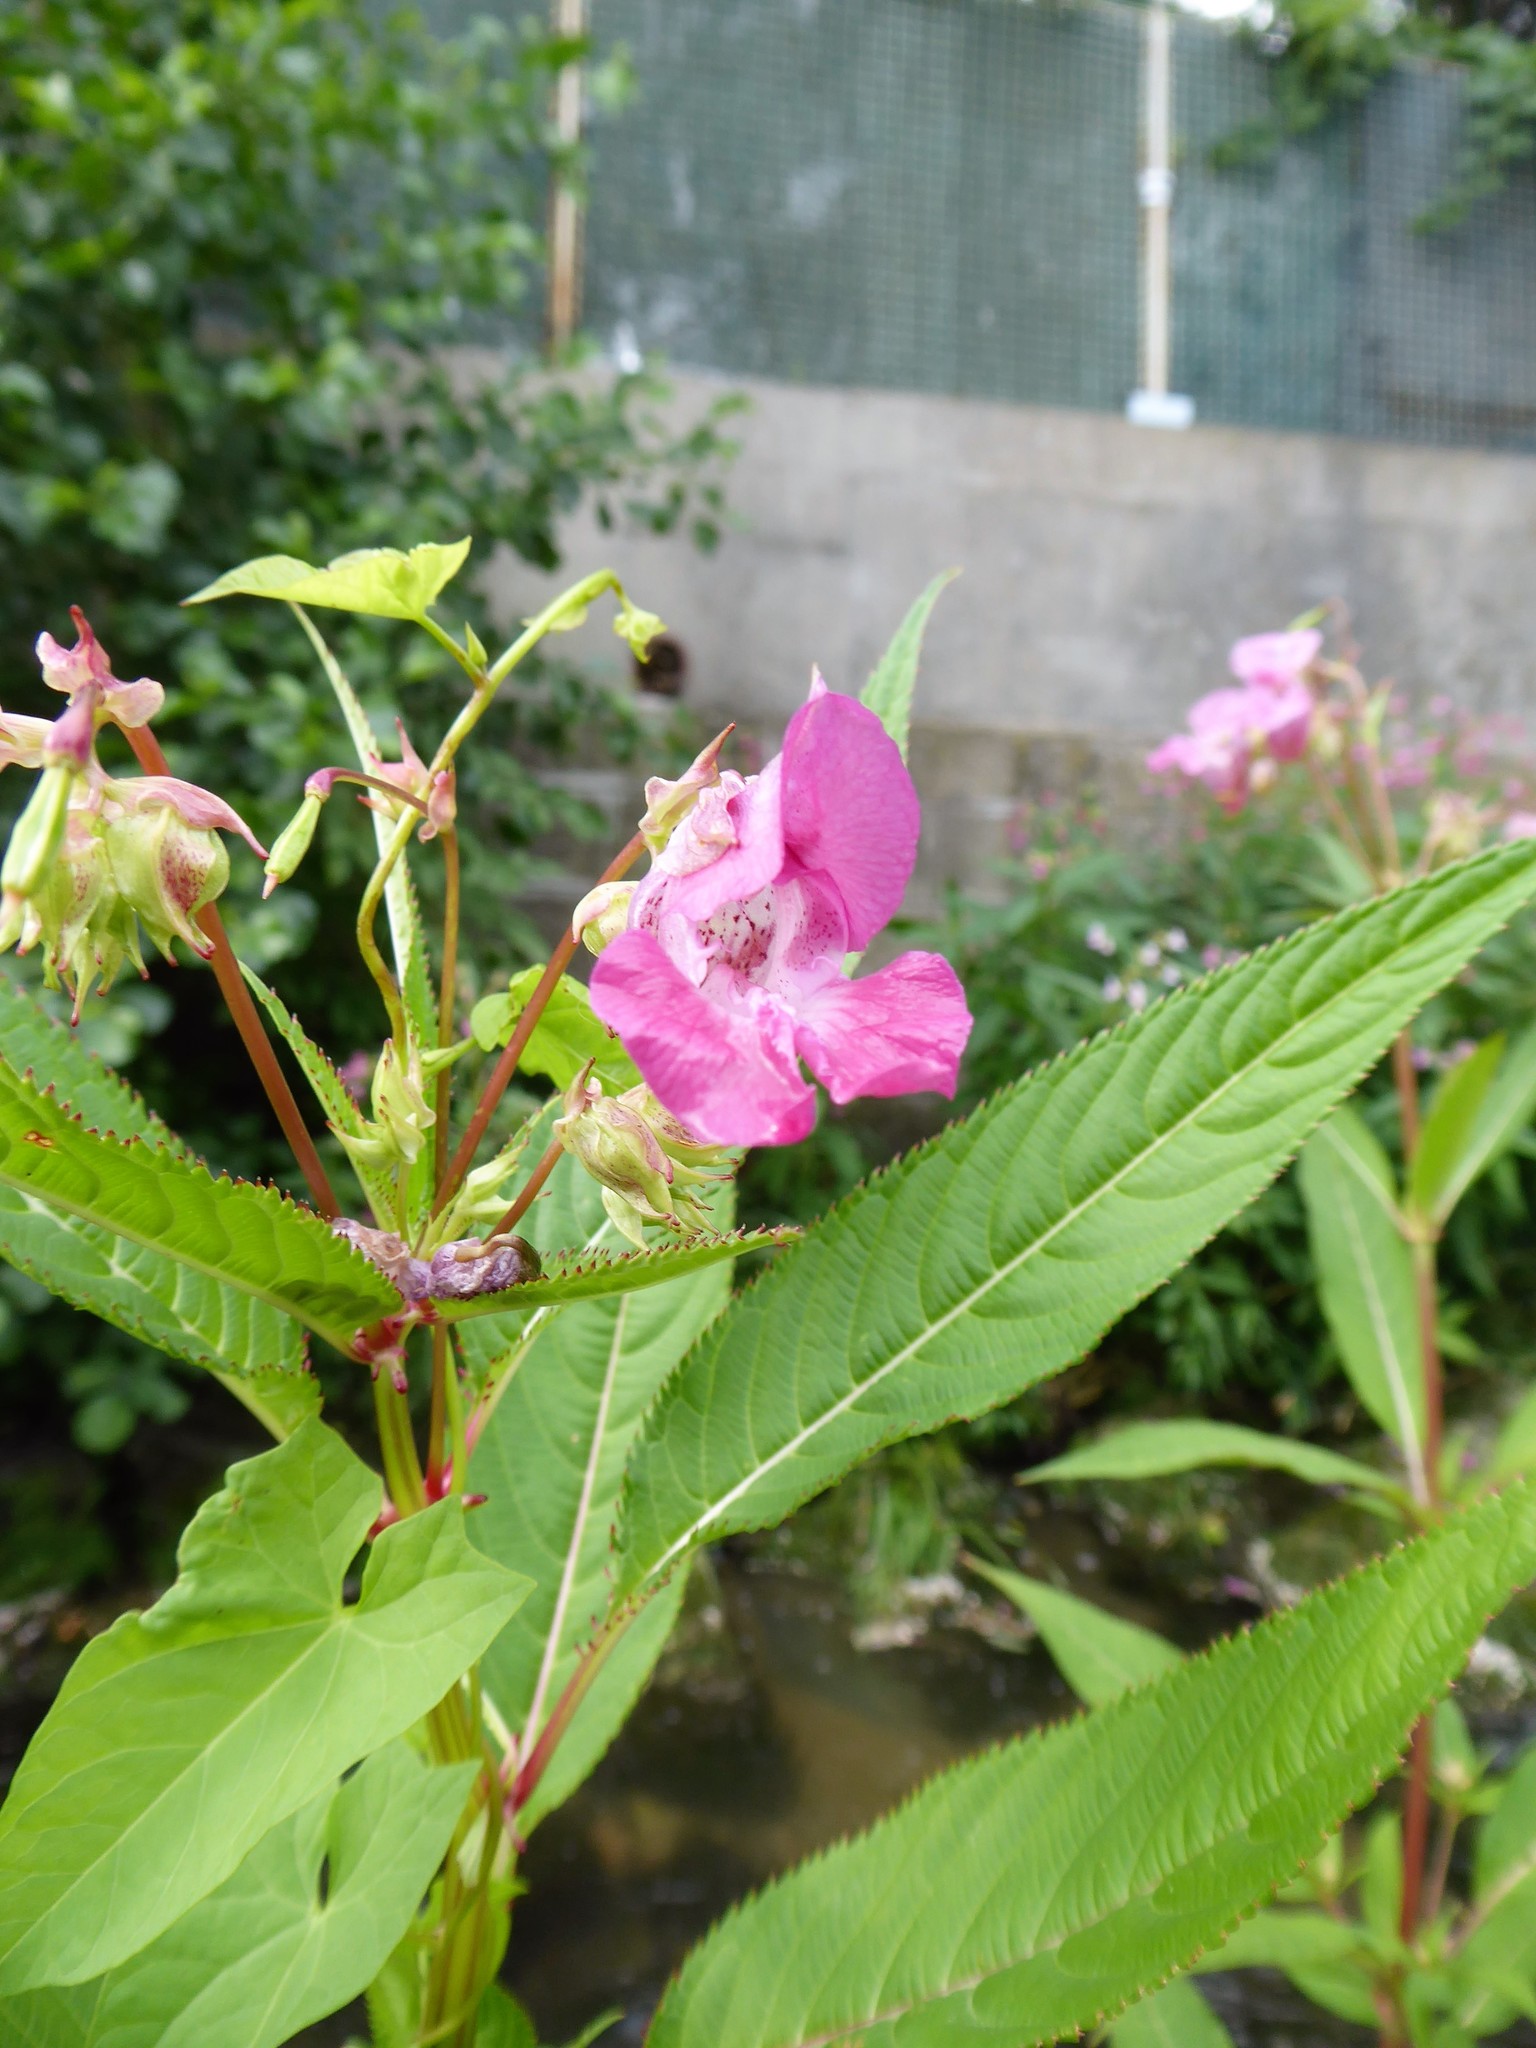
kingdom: Plantae
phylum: Tracheophyta
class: Magnoliopsida
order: Ericales
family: Balsaminaceae
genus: Impatiens
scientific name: Impatiens glandulifera
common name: Himalayan balsam
